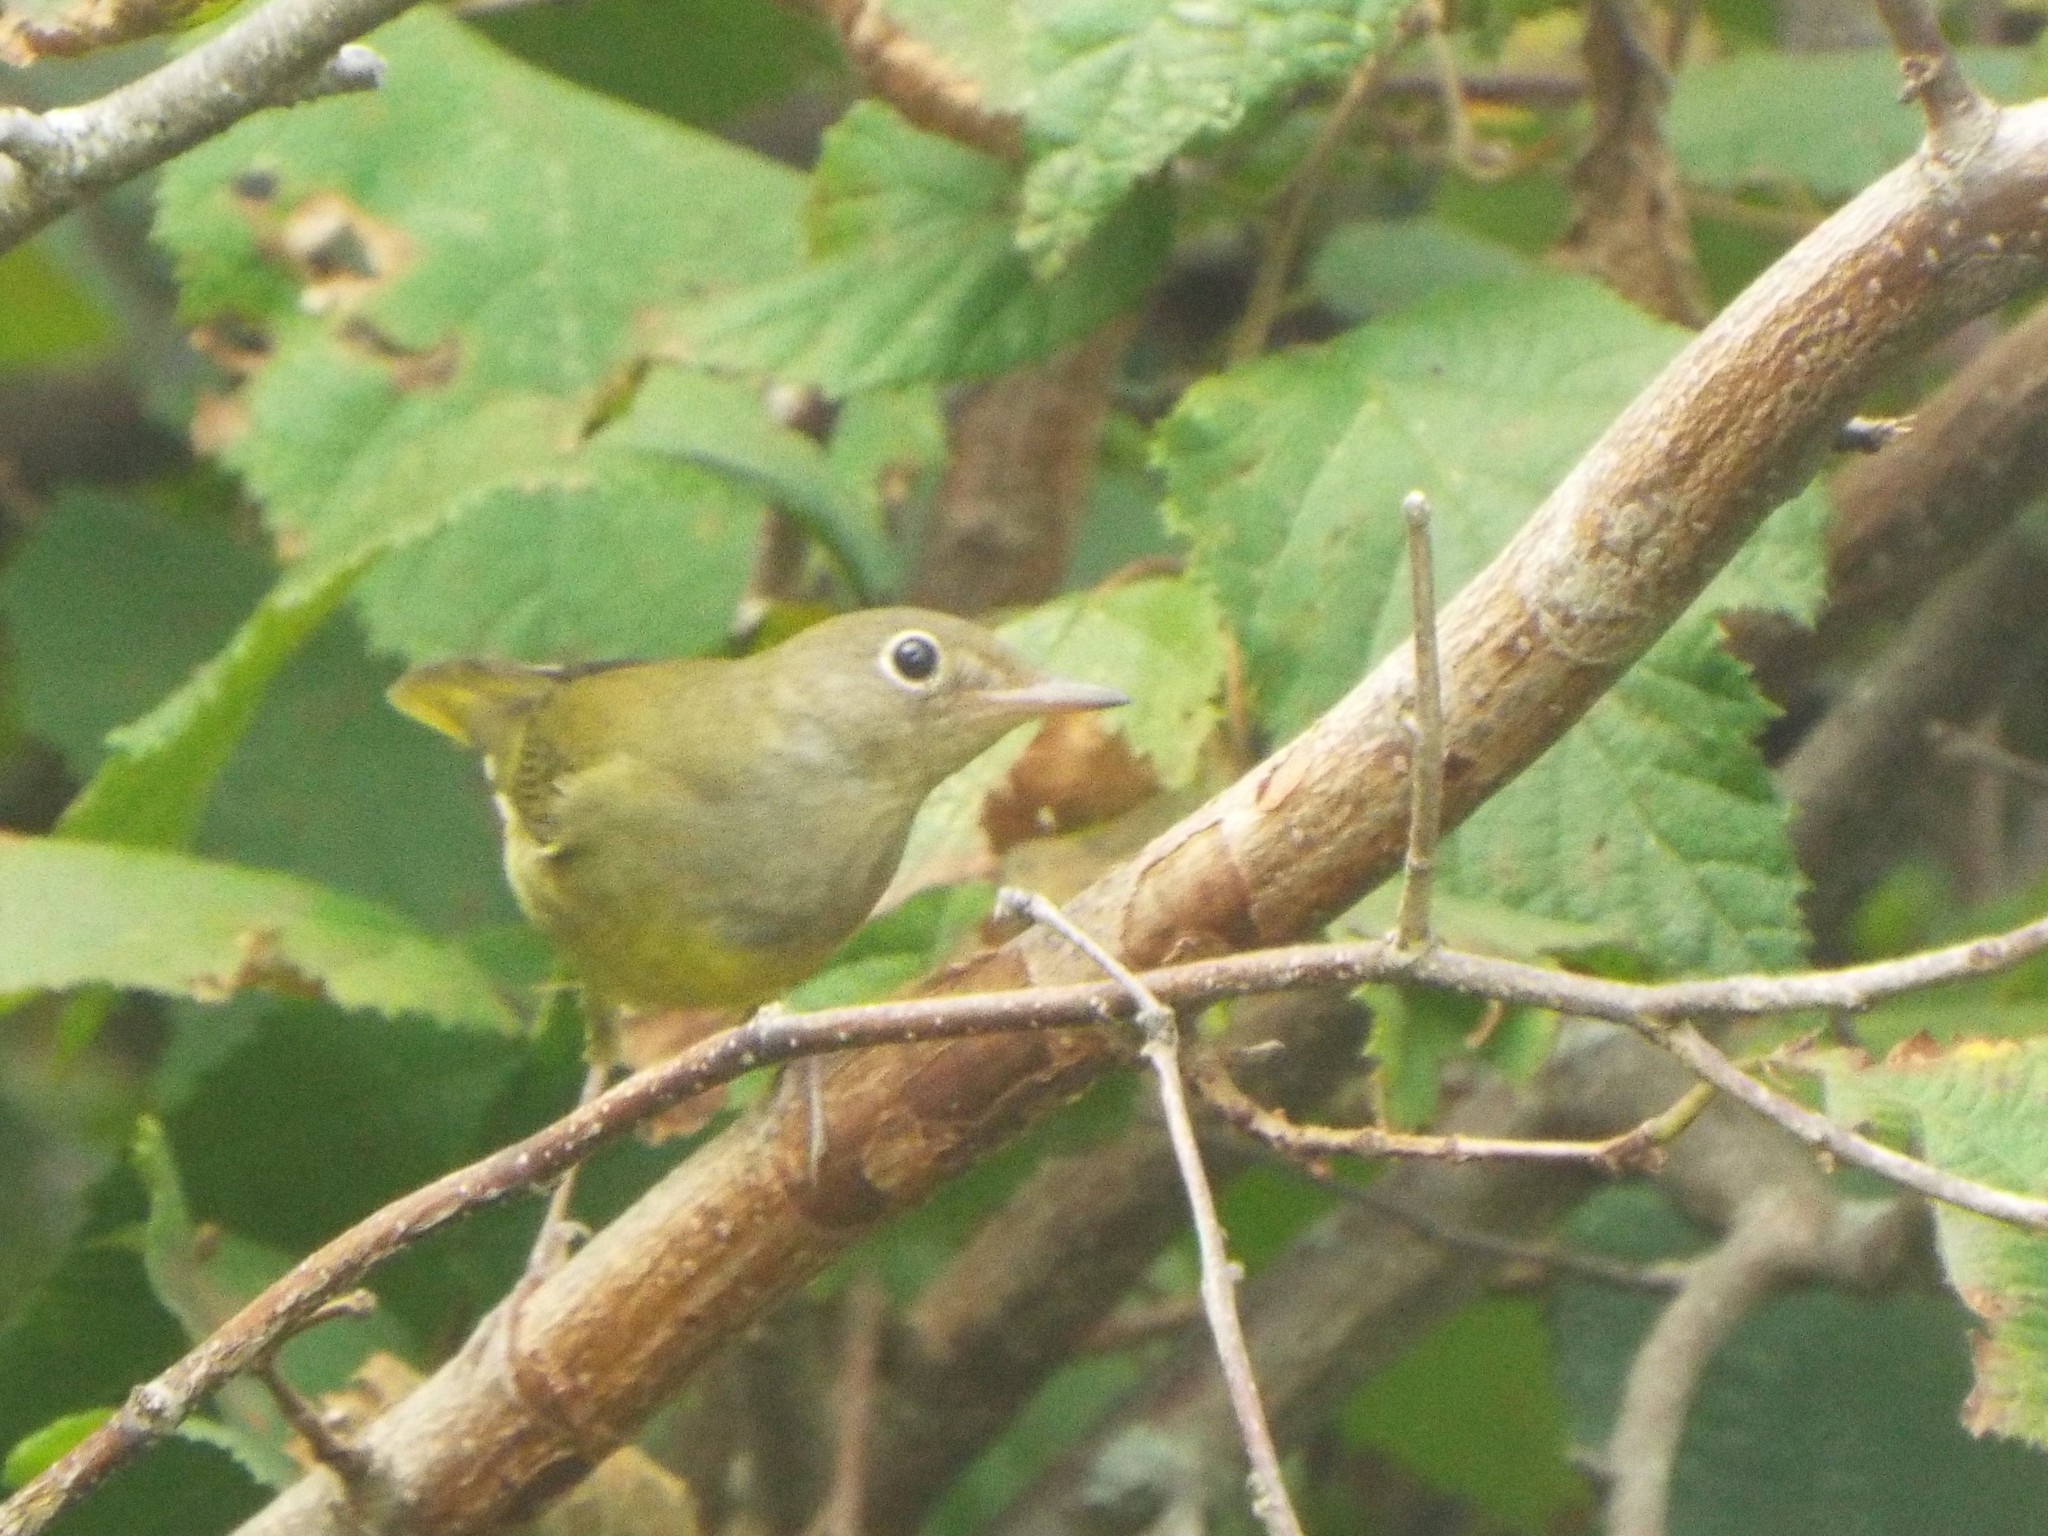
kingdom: Animalia
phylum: Chordata
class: Aves
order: Passeriformes
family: Parulidae
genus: Oporornis
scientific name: Oporornis agilis
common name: Connecticut warbler
